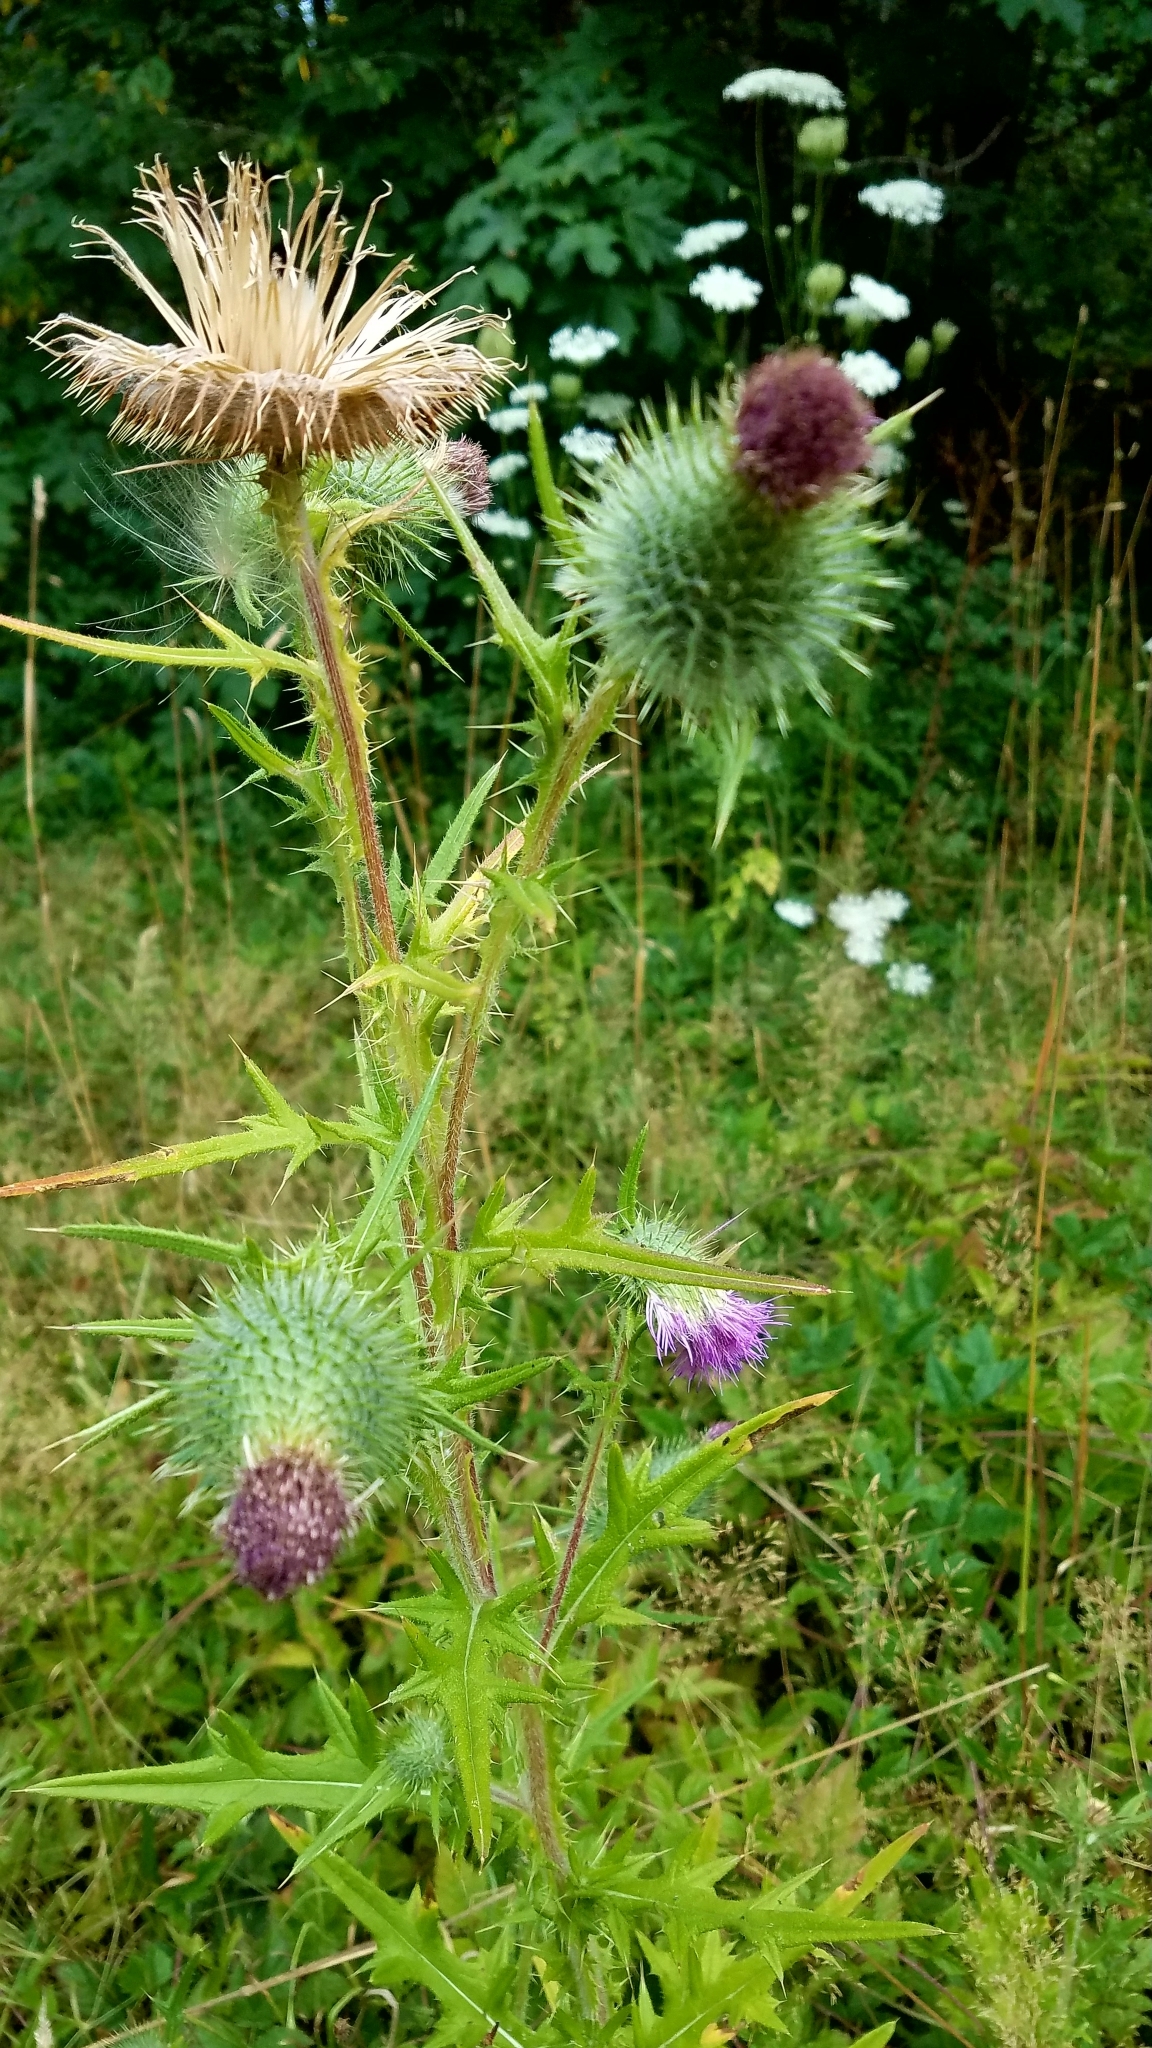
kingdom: Plantae
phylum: Tracheophyta
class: Magnoliopsida
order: Asterales
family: Asteraceae
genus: Cirsium
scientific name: Cirsium vulgare
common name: Bull thistle
